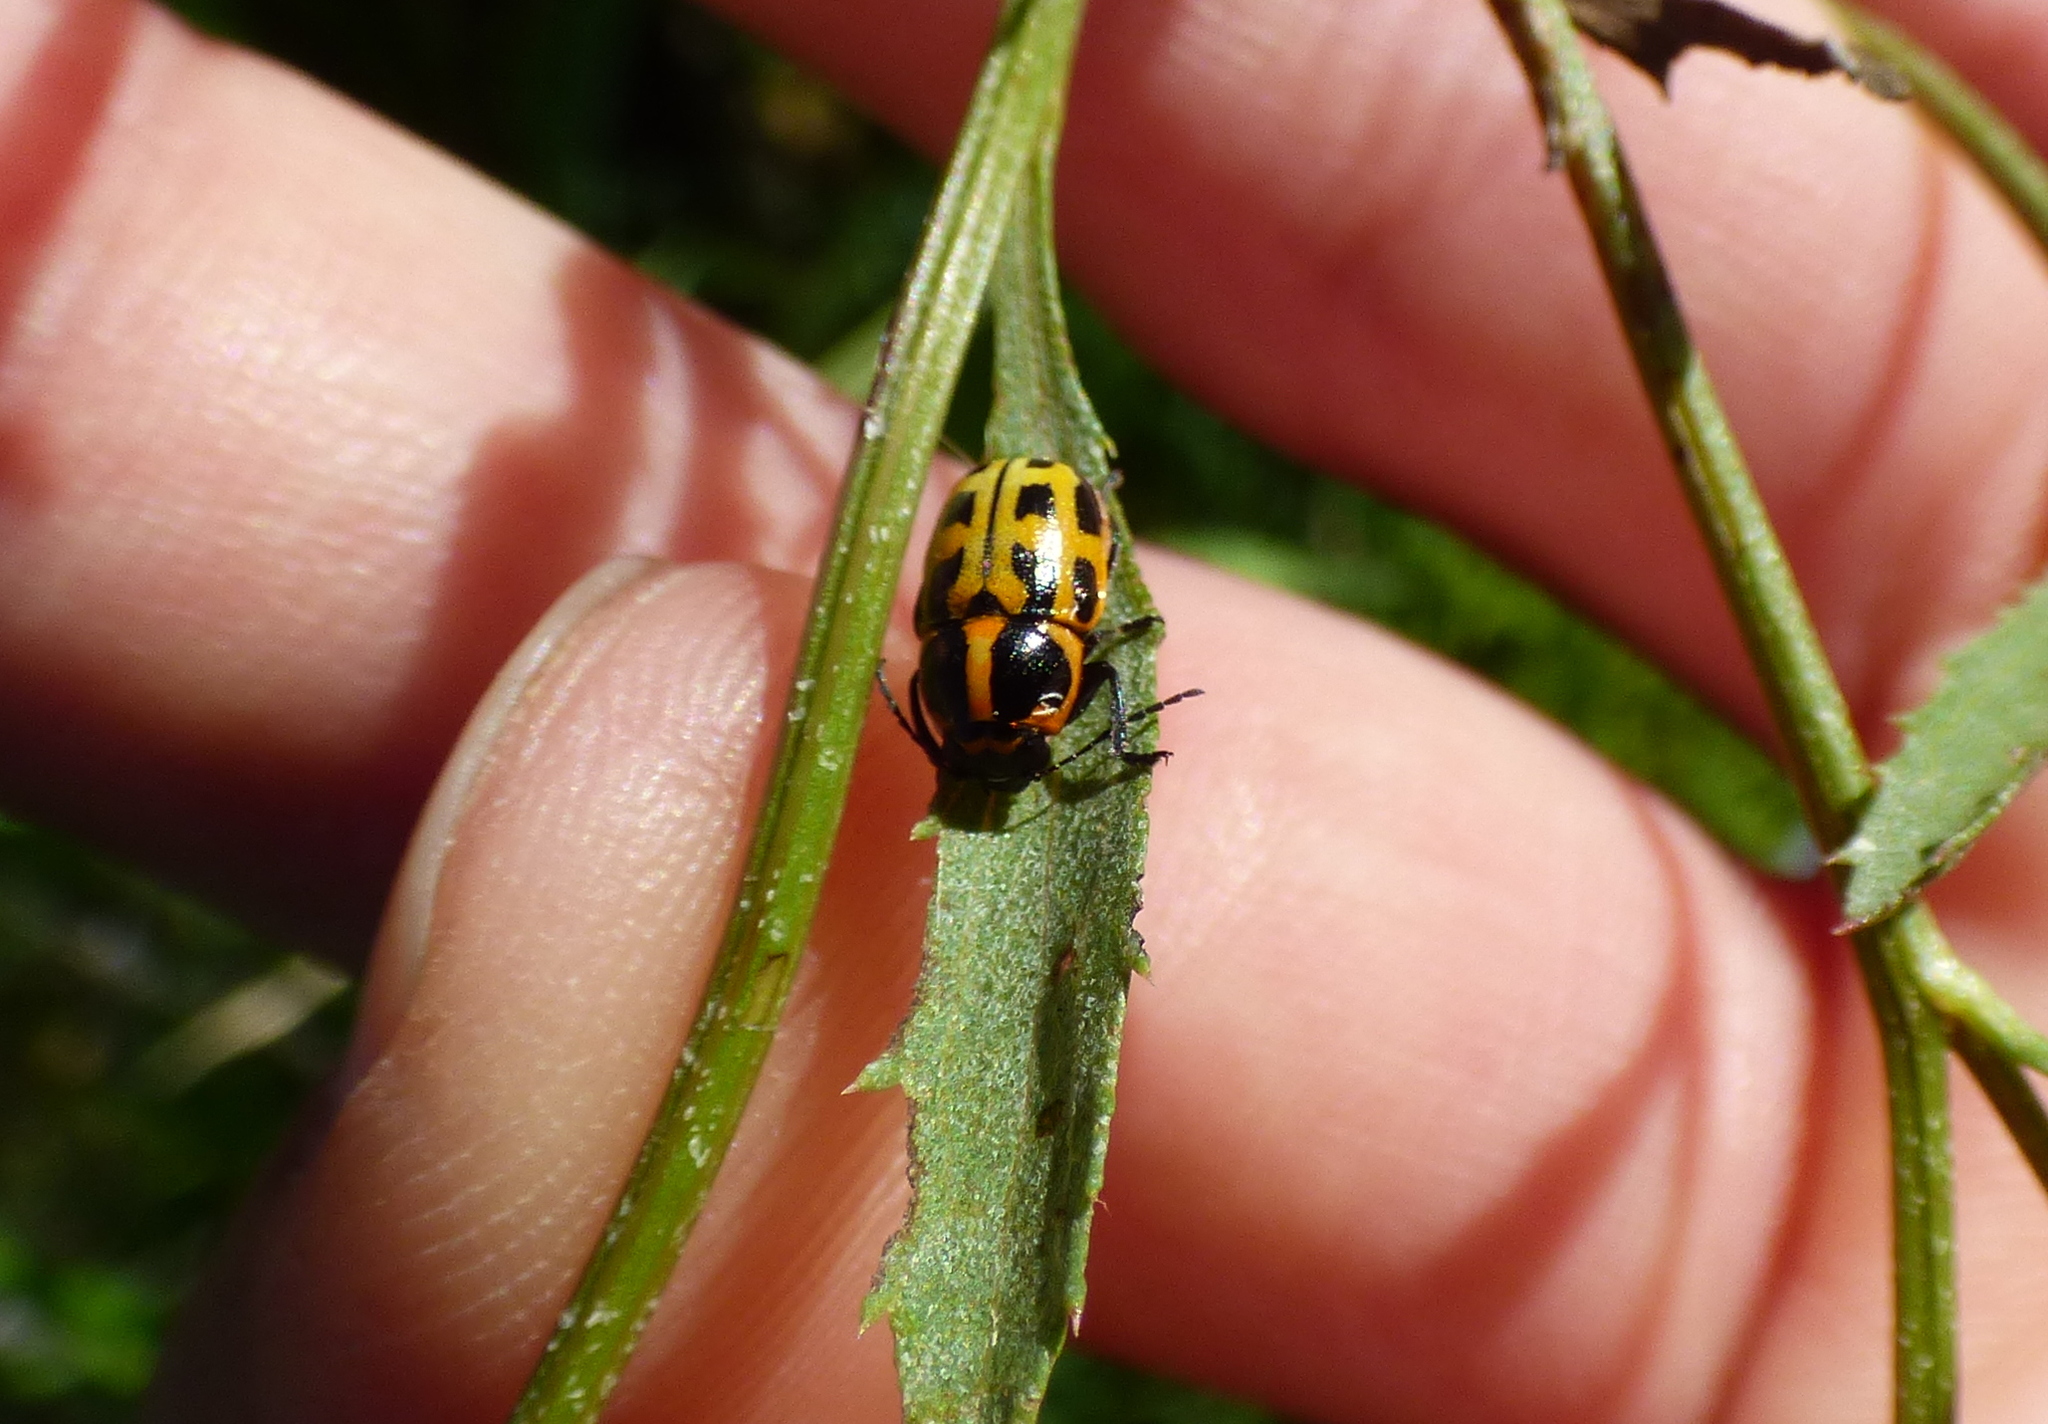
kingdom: Animalia
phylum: Arthropoda
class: Insecta
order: Coleoptera
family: Chrysomelidae
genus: Metallactus
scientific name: Metallactus hamifer
